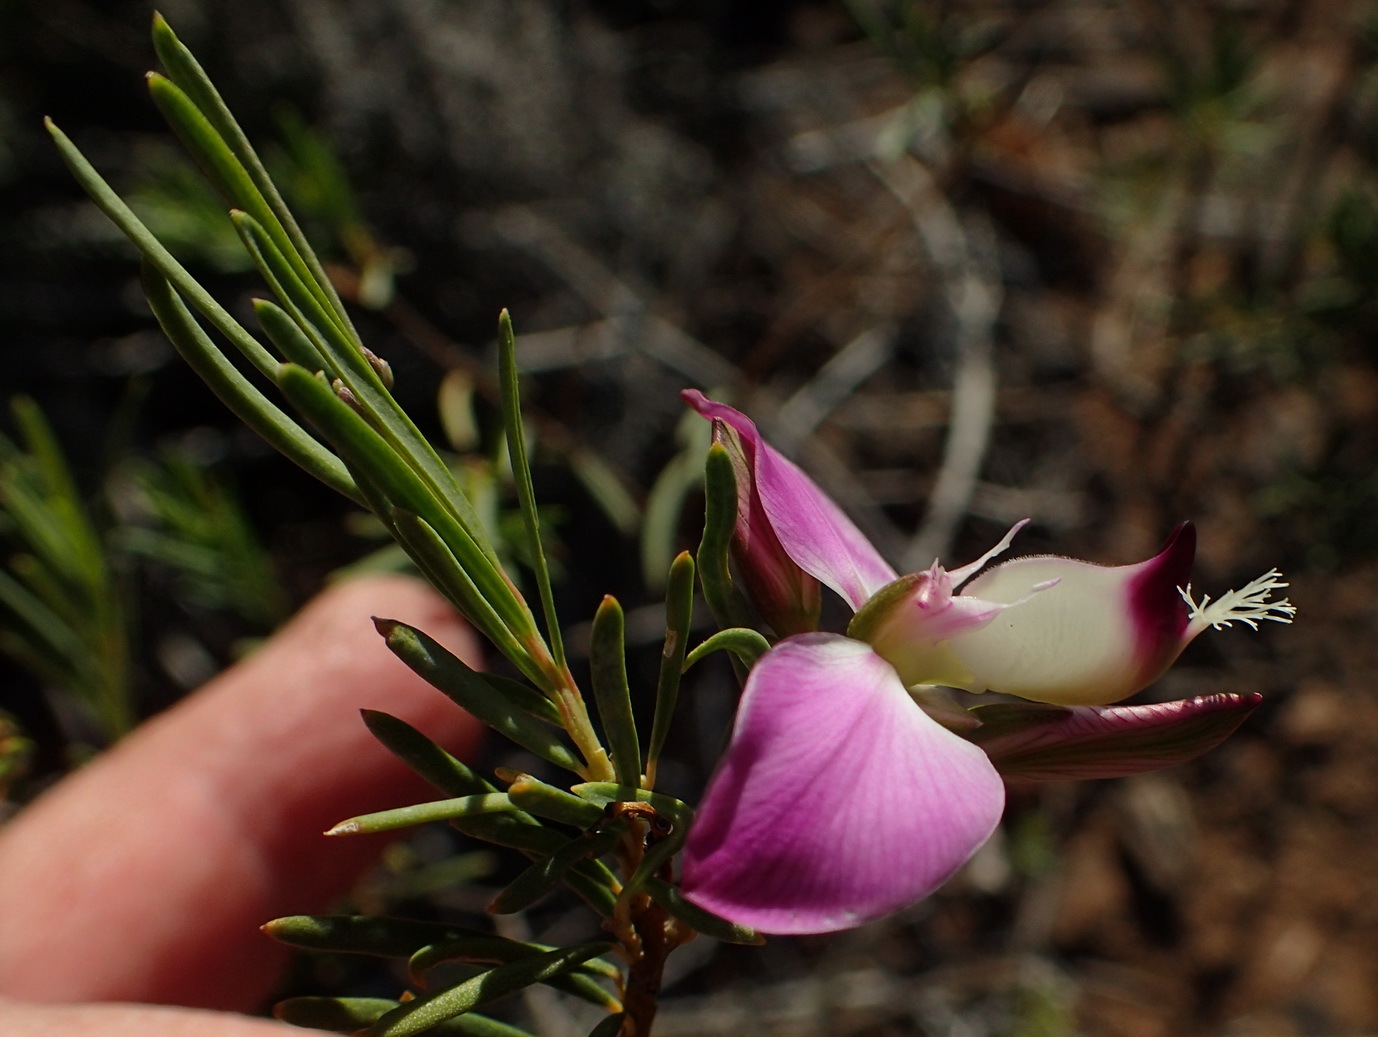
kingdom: Plantae
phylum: Tracheophyta
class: Magnoliopsida
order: Fabales
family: Polygalaceae
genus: Polygala
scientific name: Polygala myrtifolia
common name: Myrtle-leaf milkwort
